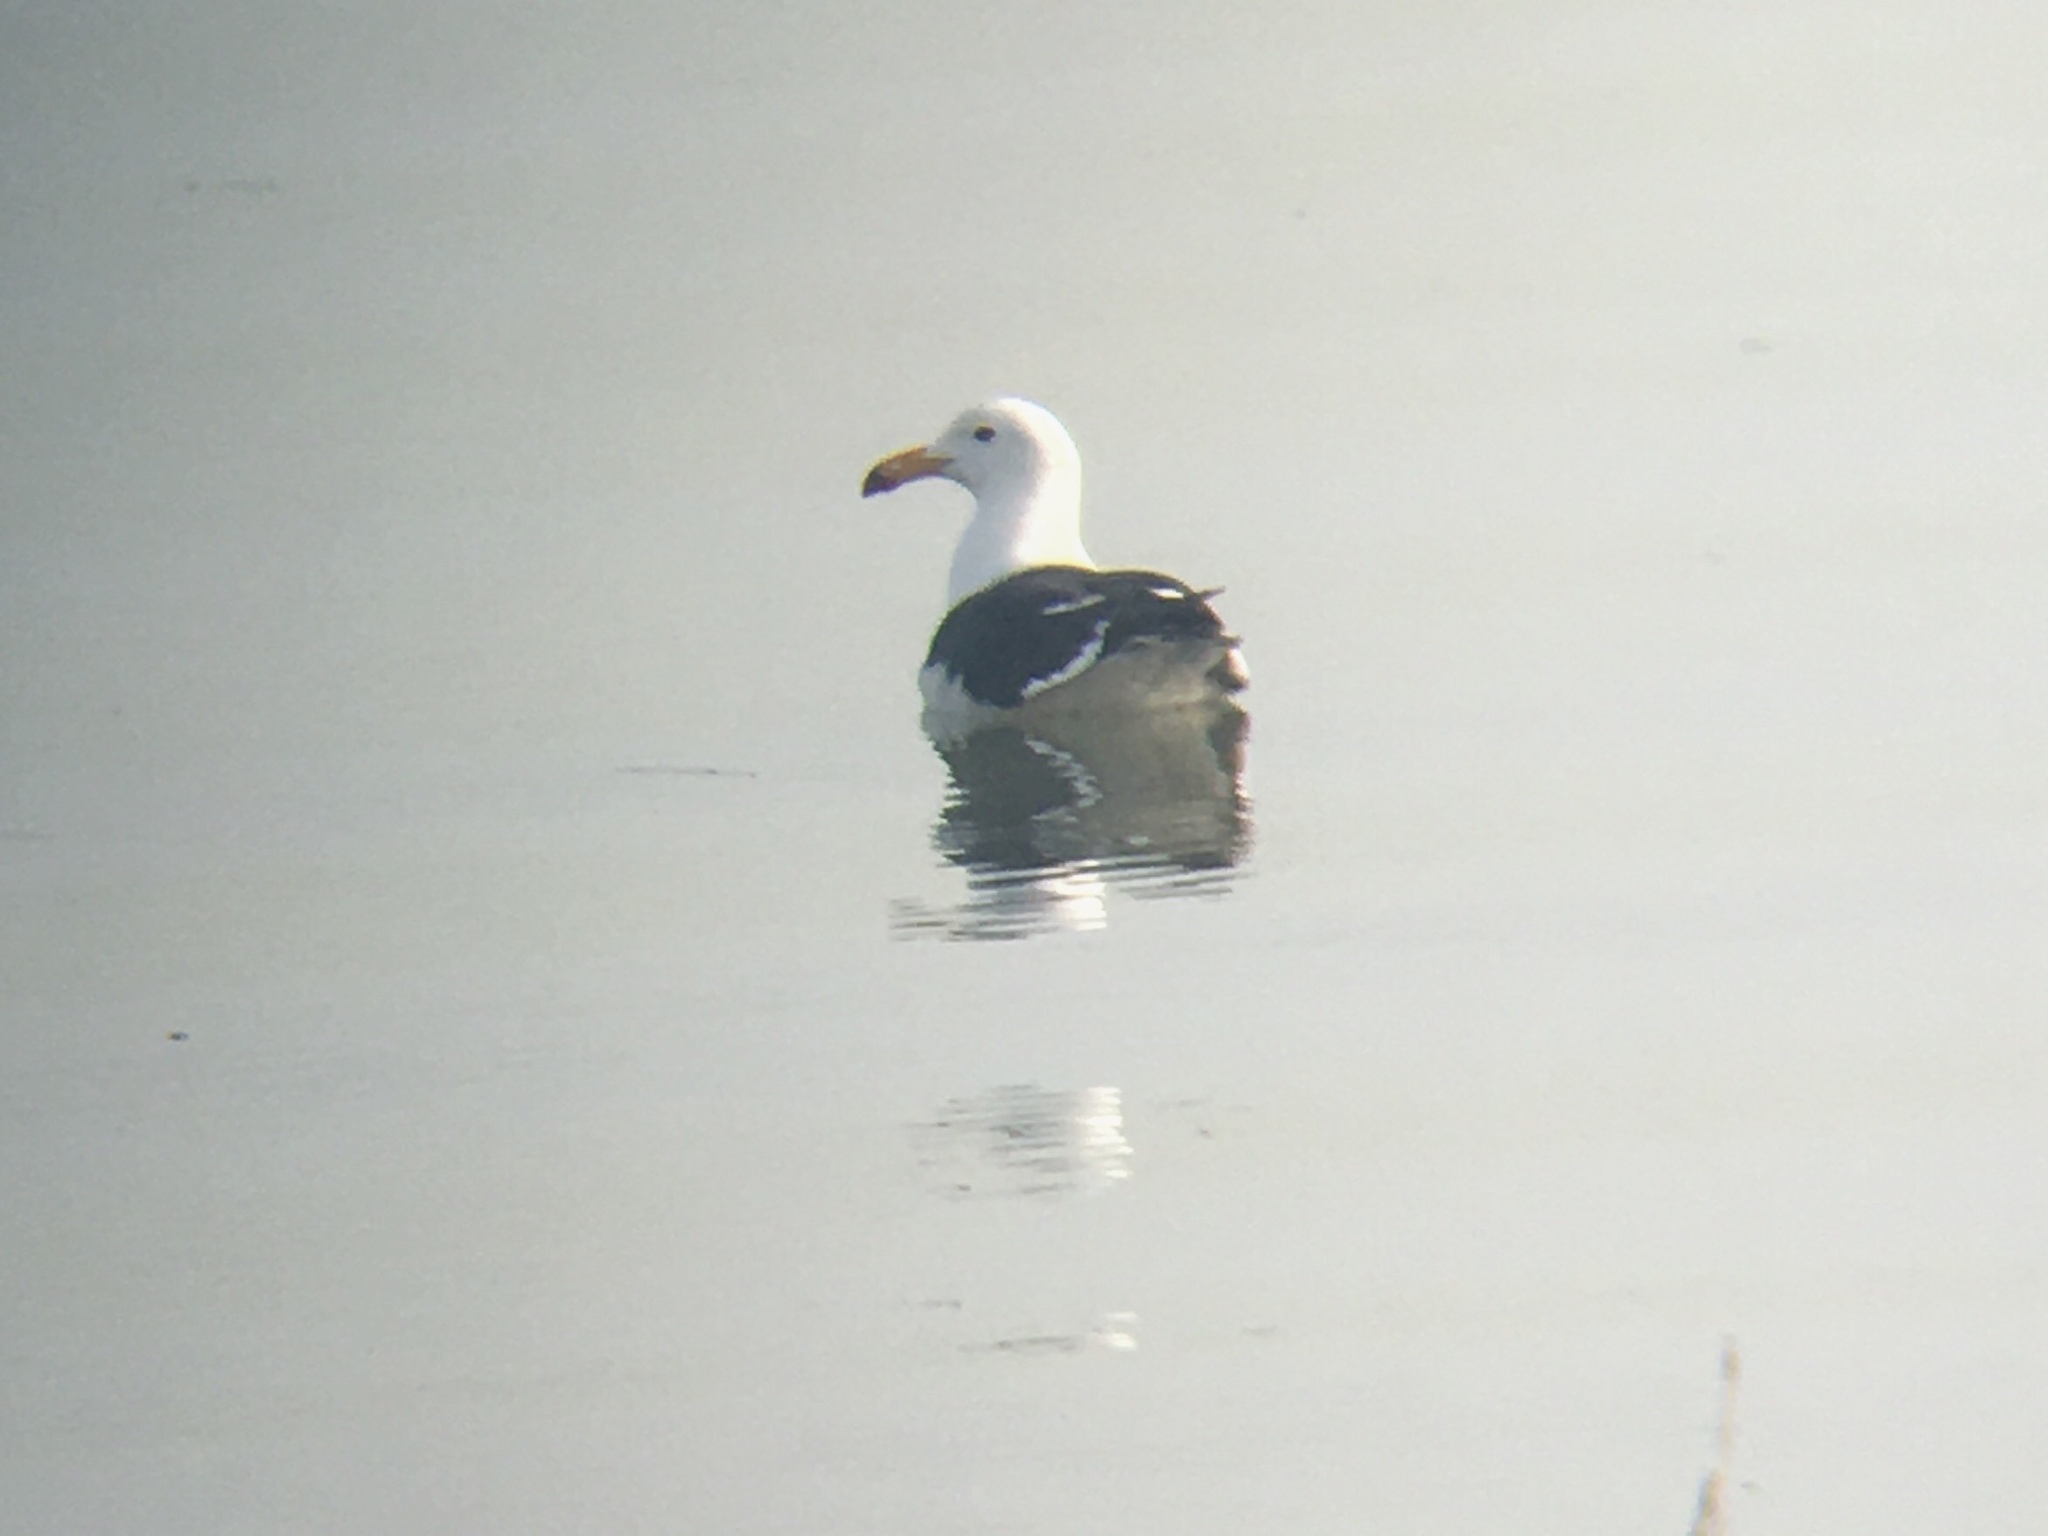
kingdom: Animalia
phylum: Chordata
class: Aves
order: Charadriiformes
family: Laridae
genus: Larus
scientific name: Larus atlanticus
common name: Olrog's gull
